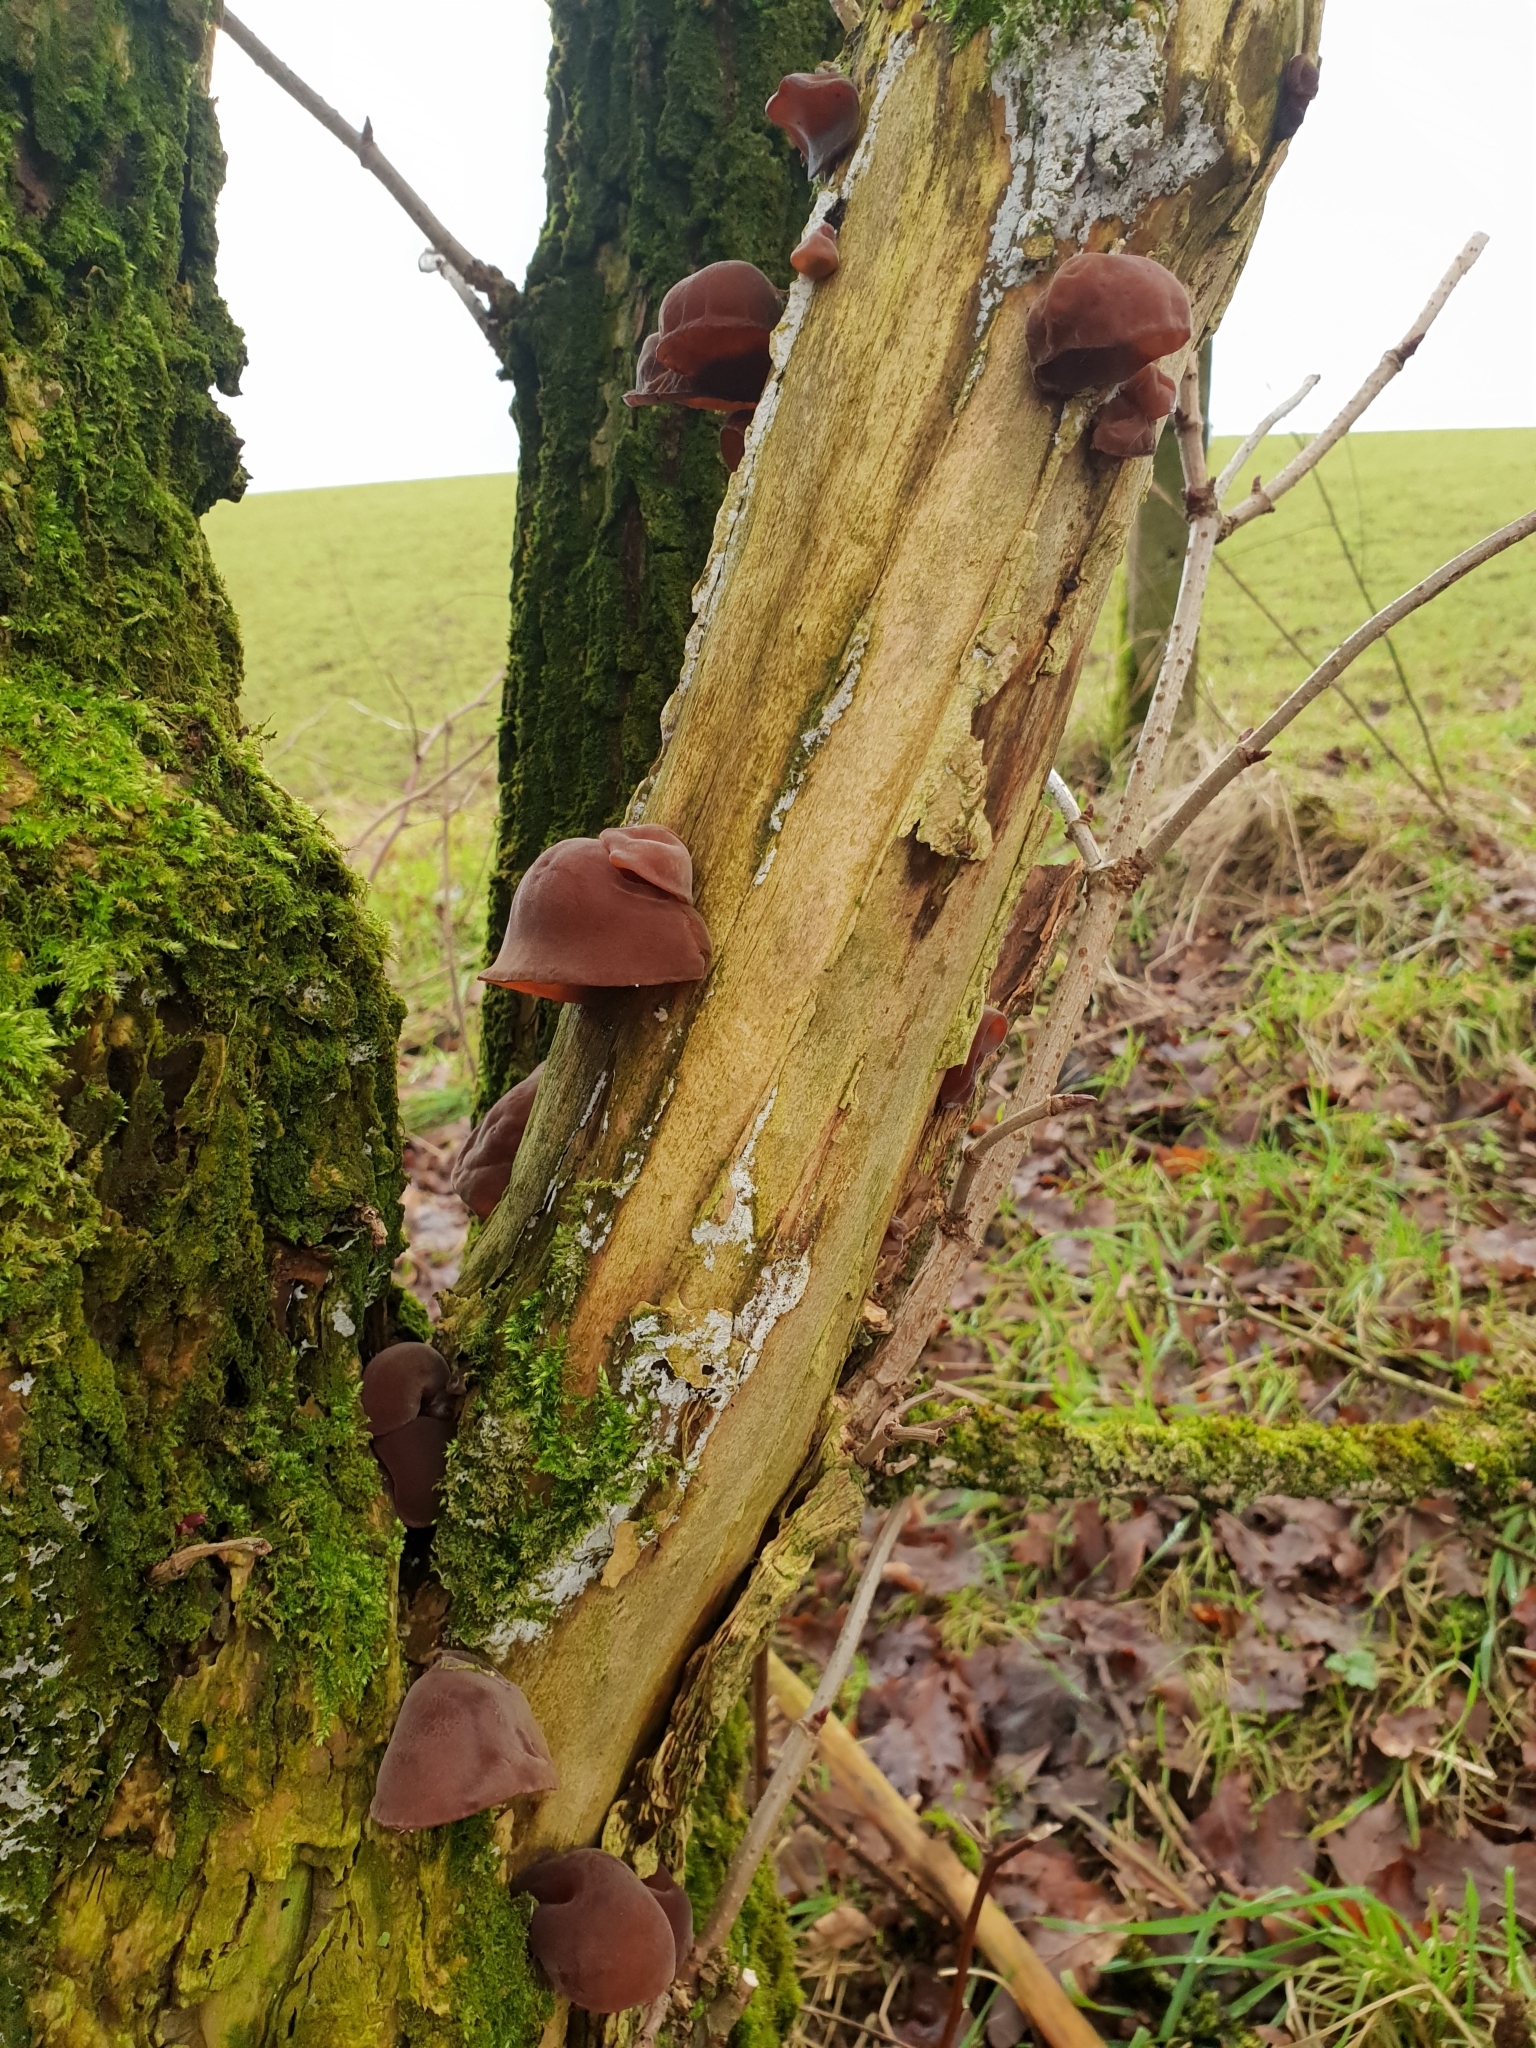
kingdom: Fungi
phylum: Basidiomycota
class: Agaricomycetes
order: Auriculariales
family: Auriculariaceae
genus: Auricularia
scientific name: Auricularia auricula-judae
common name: Jelly ear
